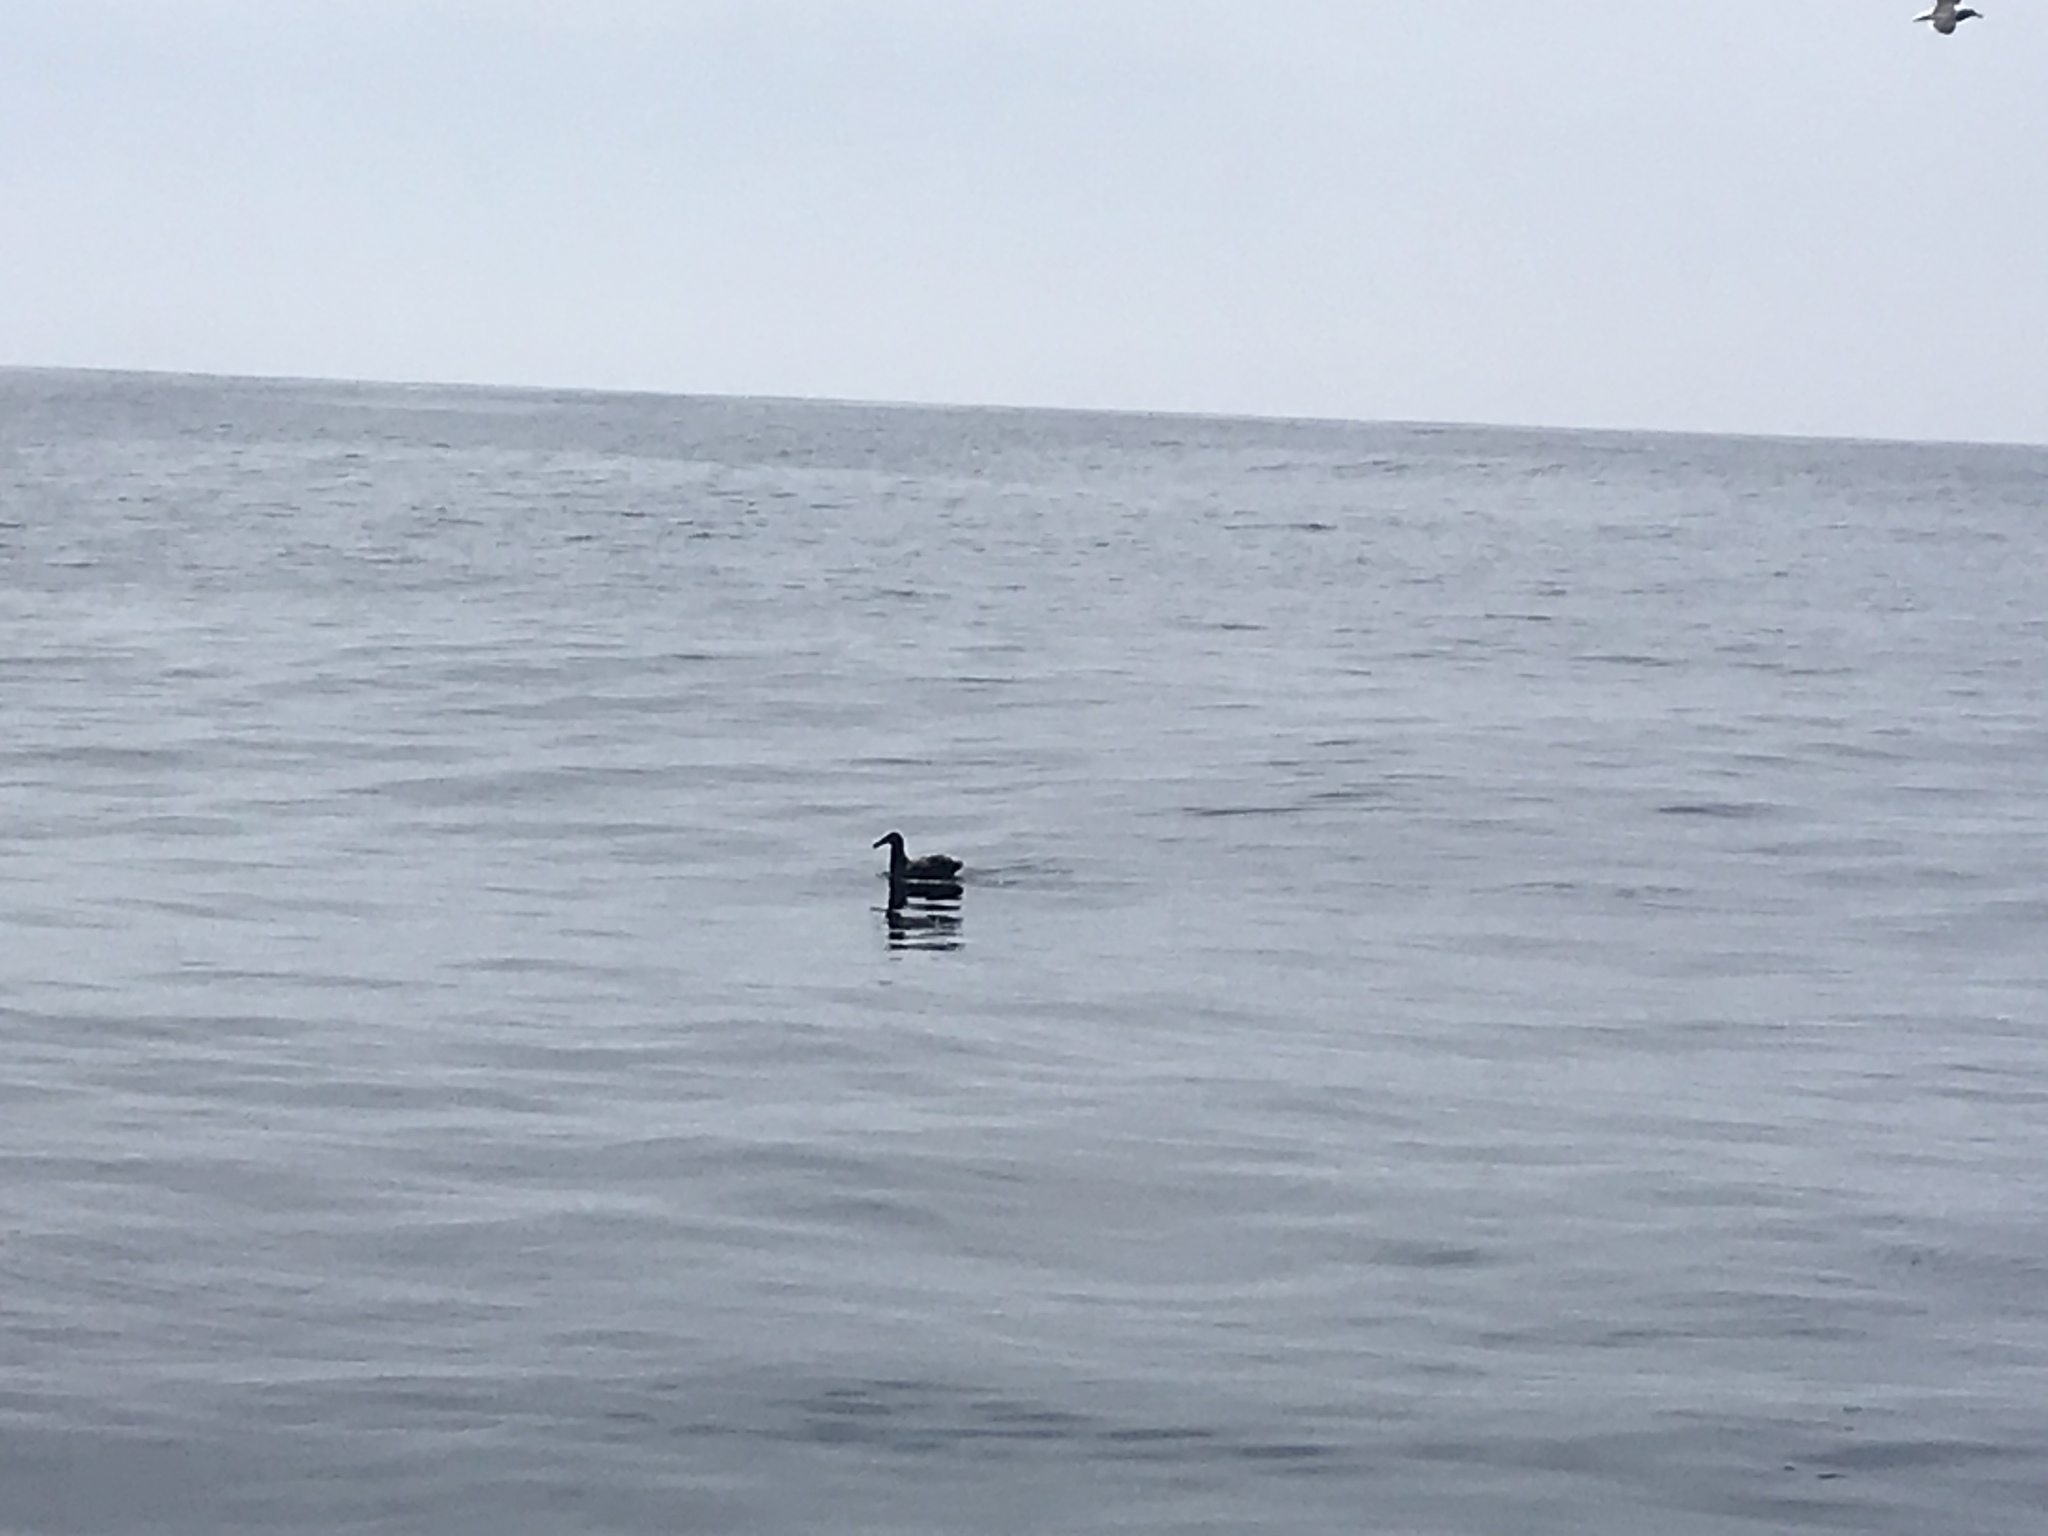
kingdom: Animalia
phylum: Chordata
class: Aves
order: Procellariiformes
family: Diomedeidae
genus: Phoebastria
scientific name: Phoebastria nigripes
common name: Black-footed albatross
